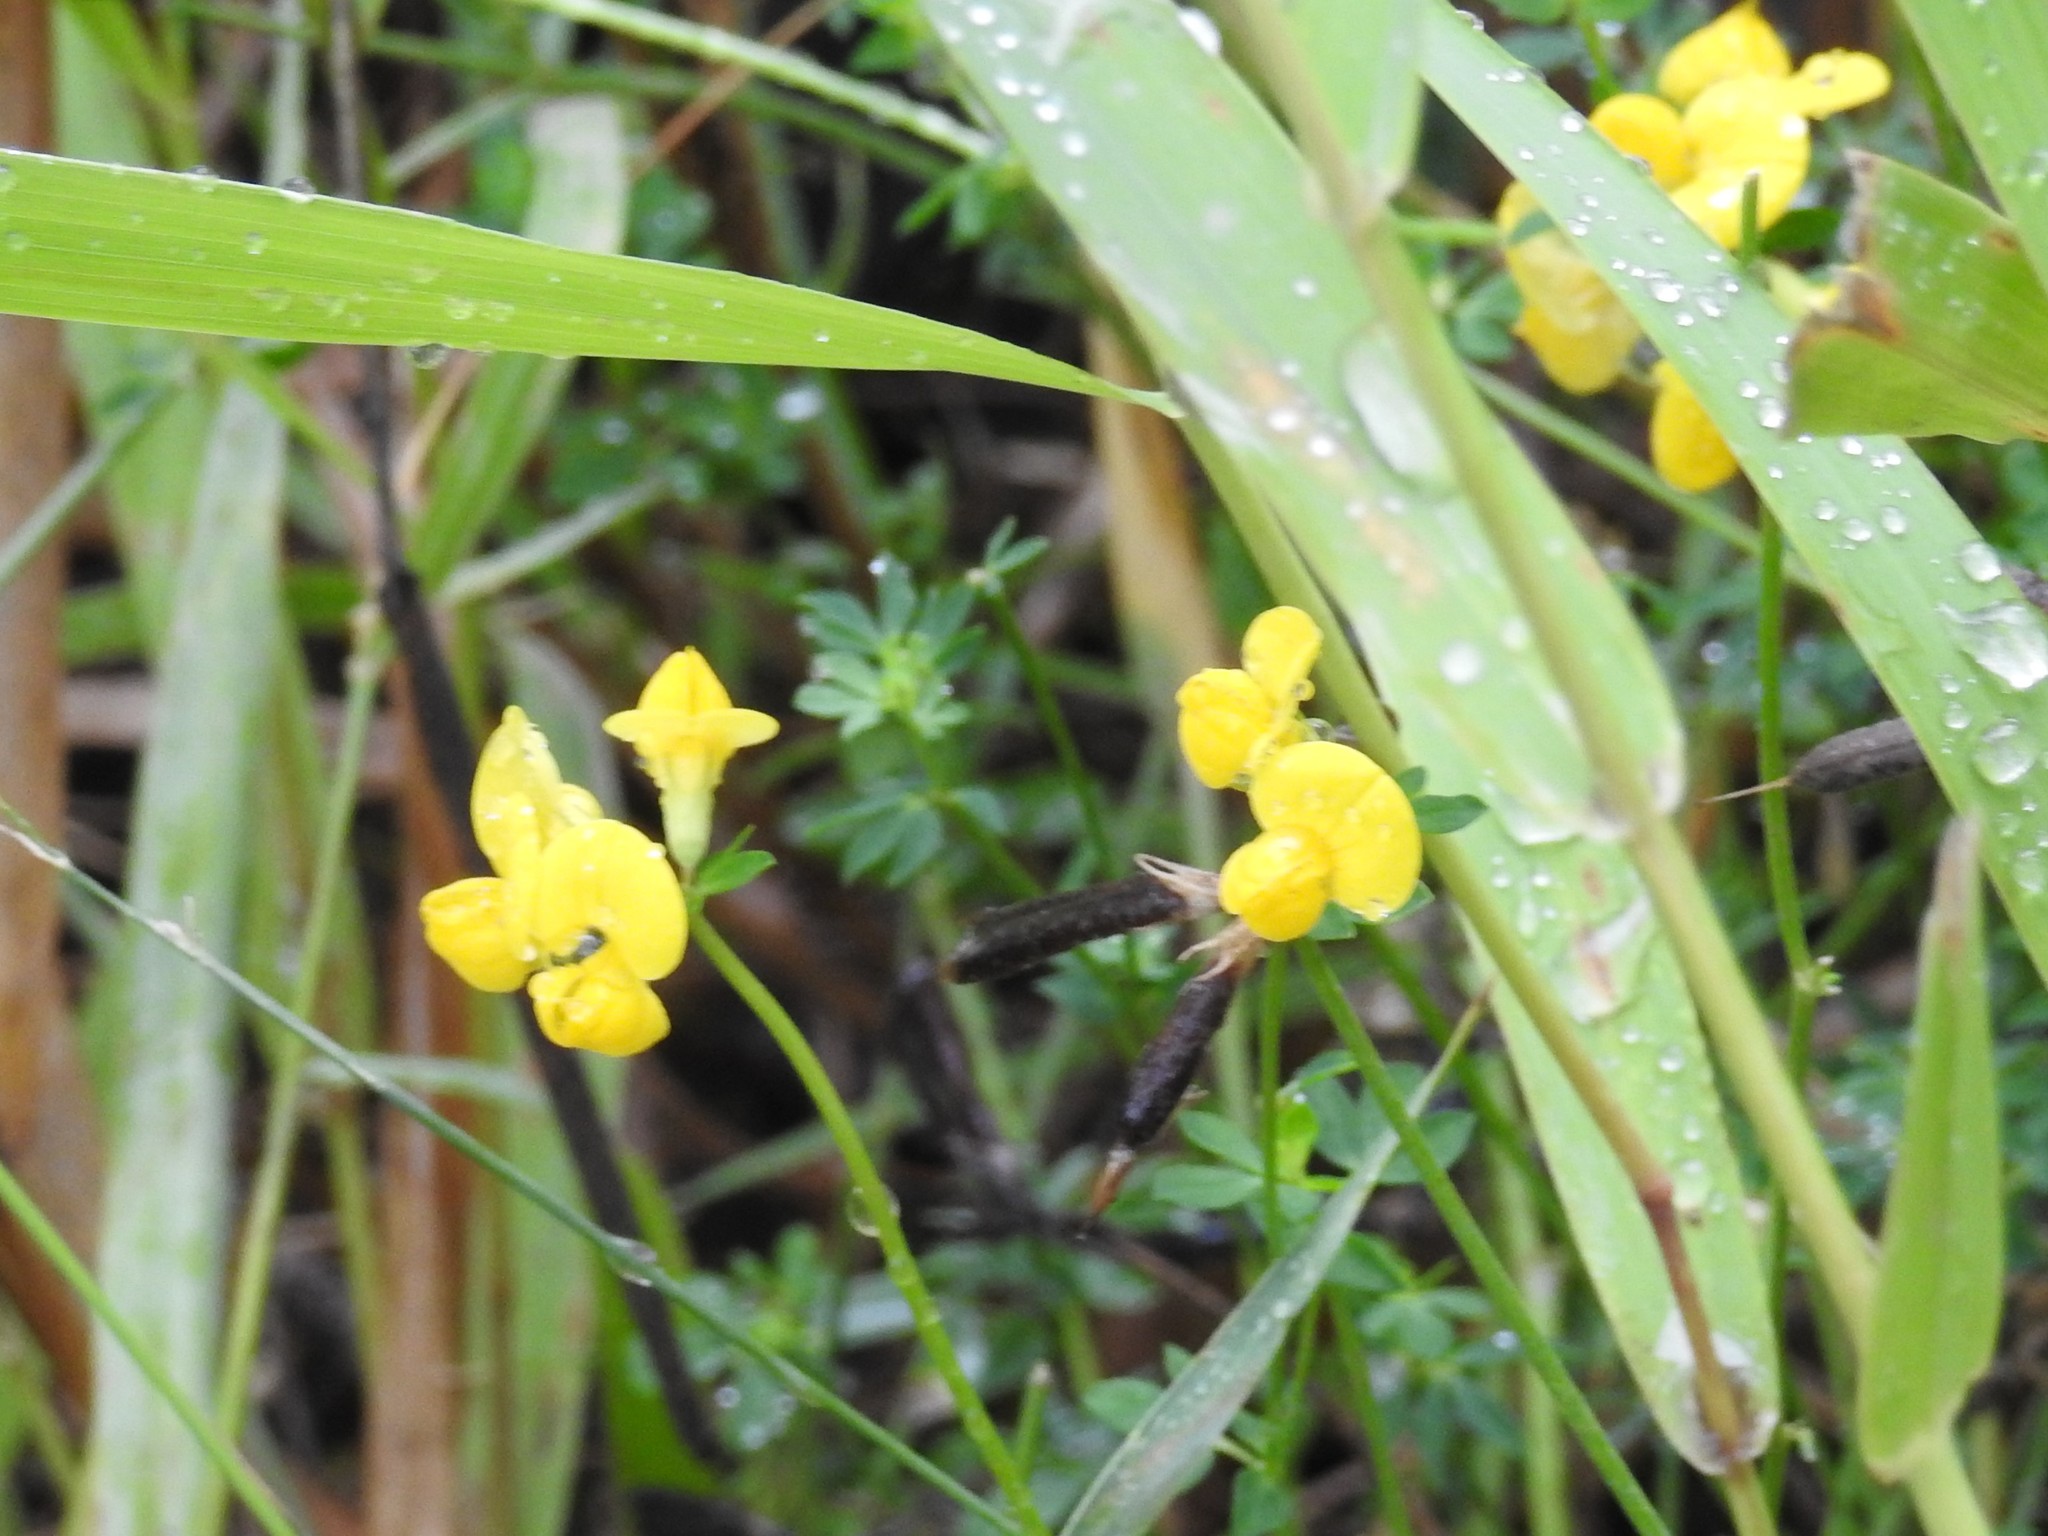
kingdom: Plantae
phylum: Tracheophyta
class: Magnoliopsida
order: Fabales
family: Fabaceae
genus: Lotus
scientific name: Lotus corniculatus
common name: Common bird's-foot-trefoil
